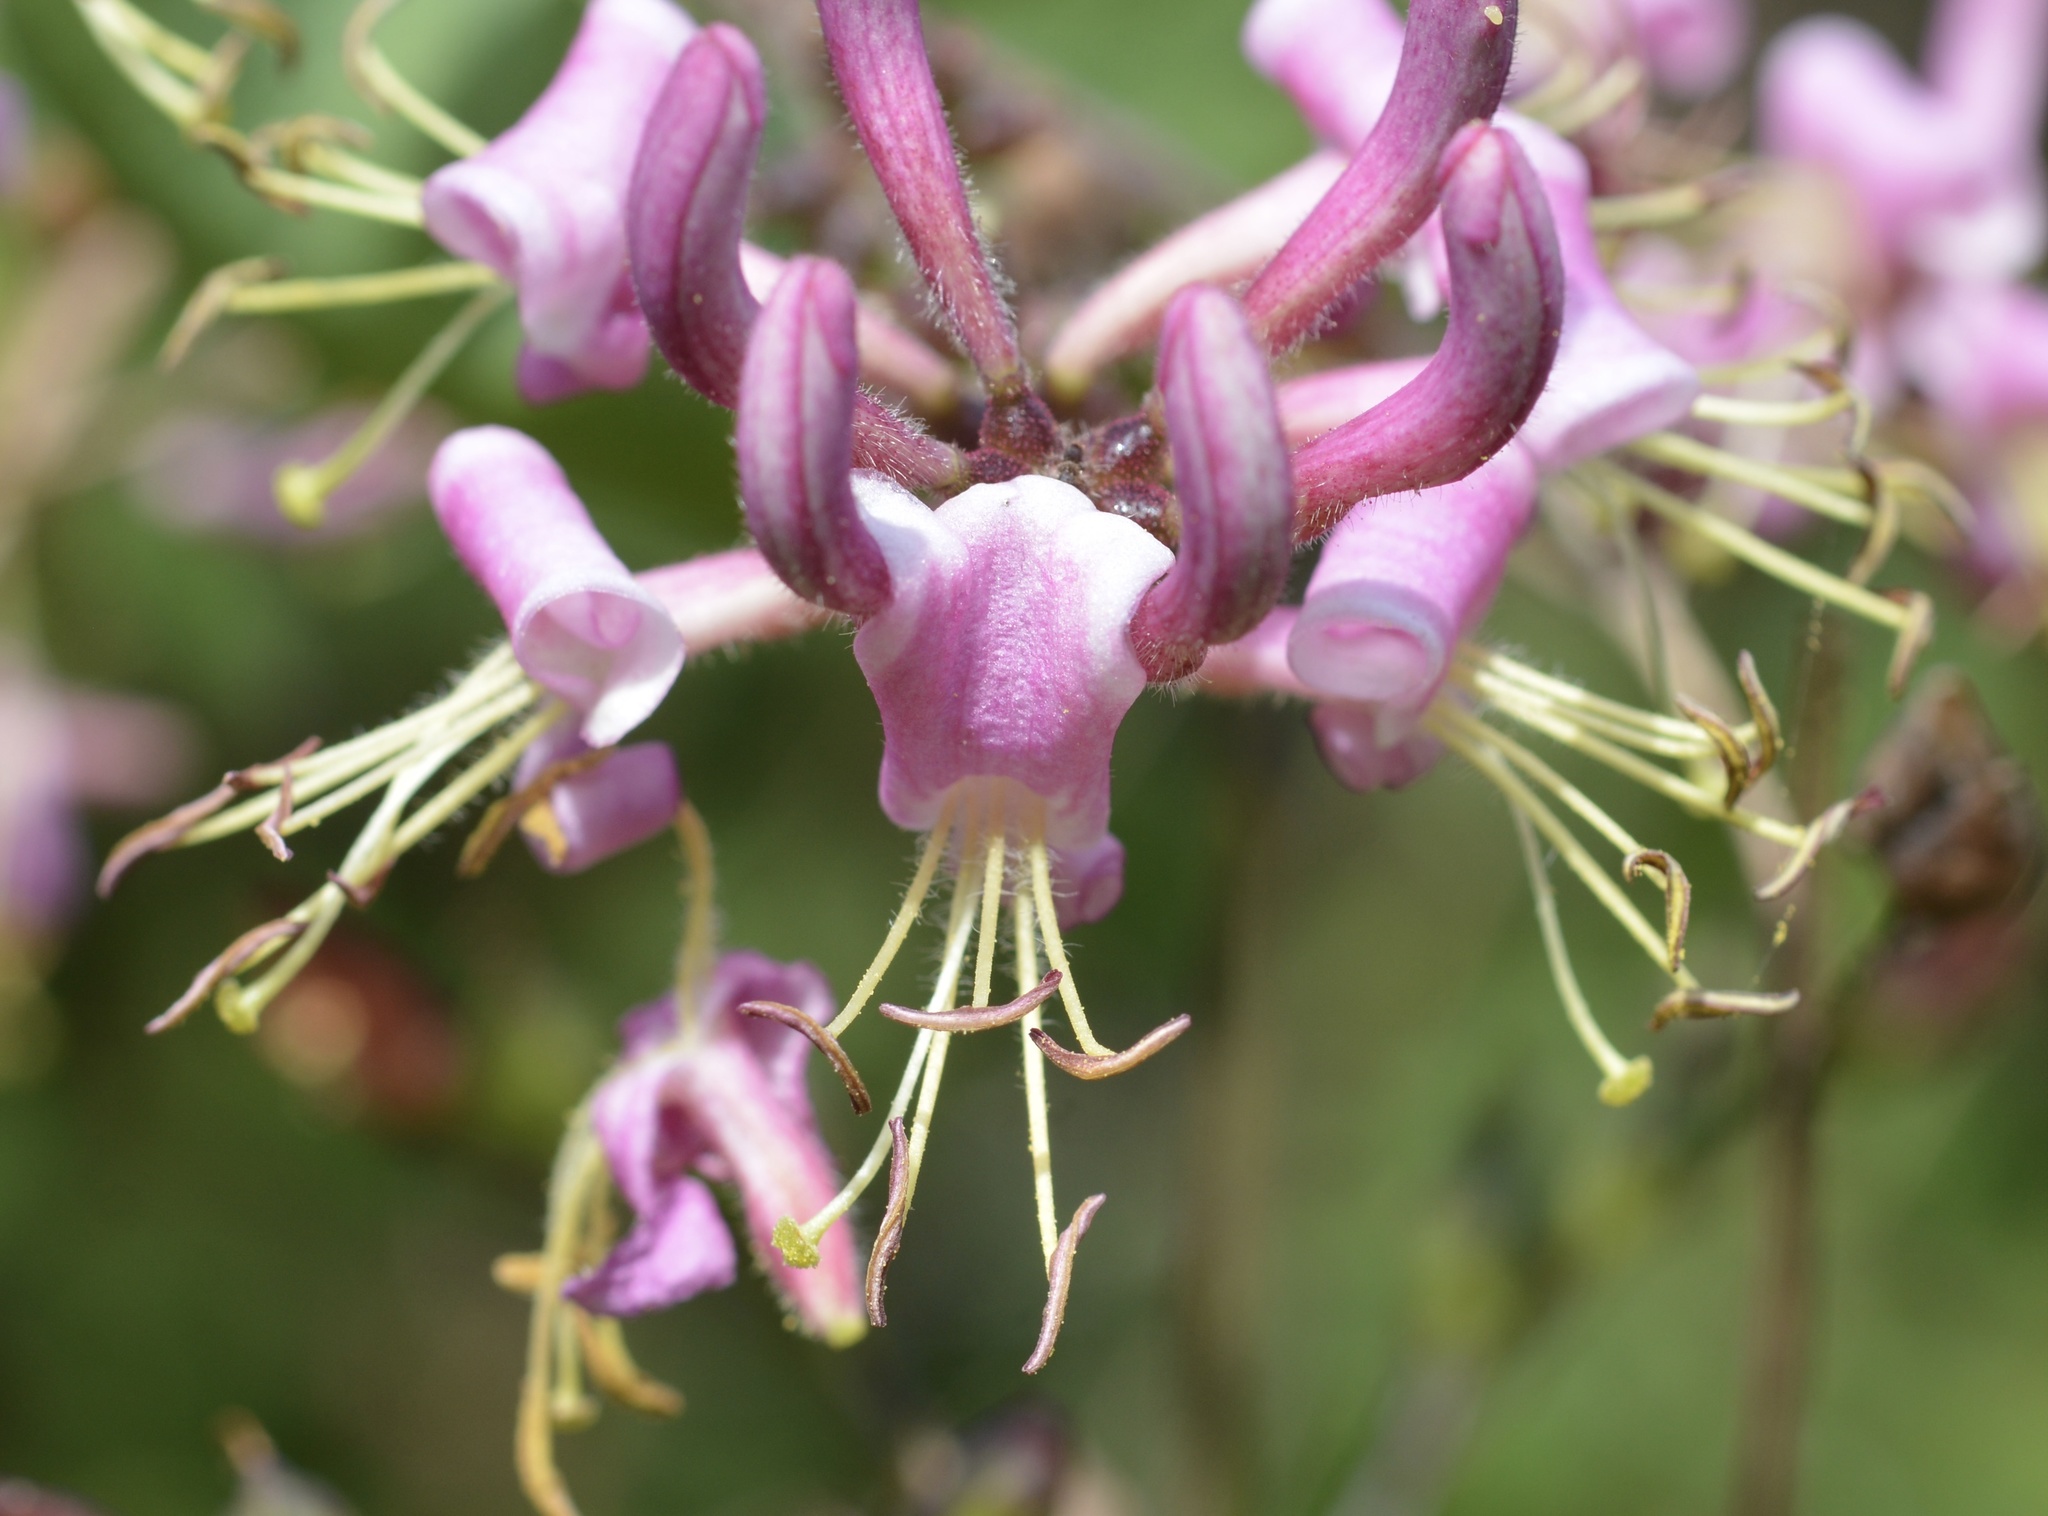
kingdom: Plantae
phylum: Tracheophyta
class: Magnoliopsida
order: Dipsacales
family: Caprifoliaceae
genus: Lonicera
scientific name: Lonicera hispidula
